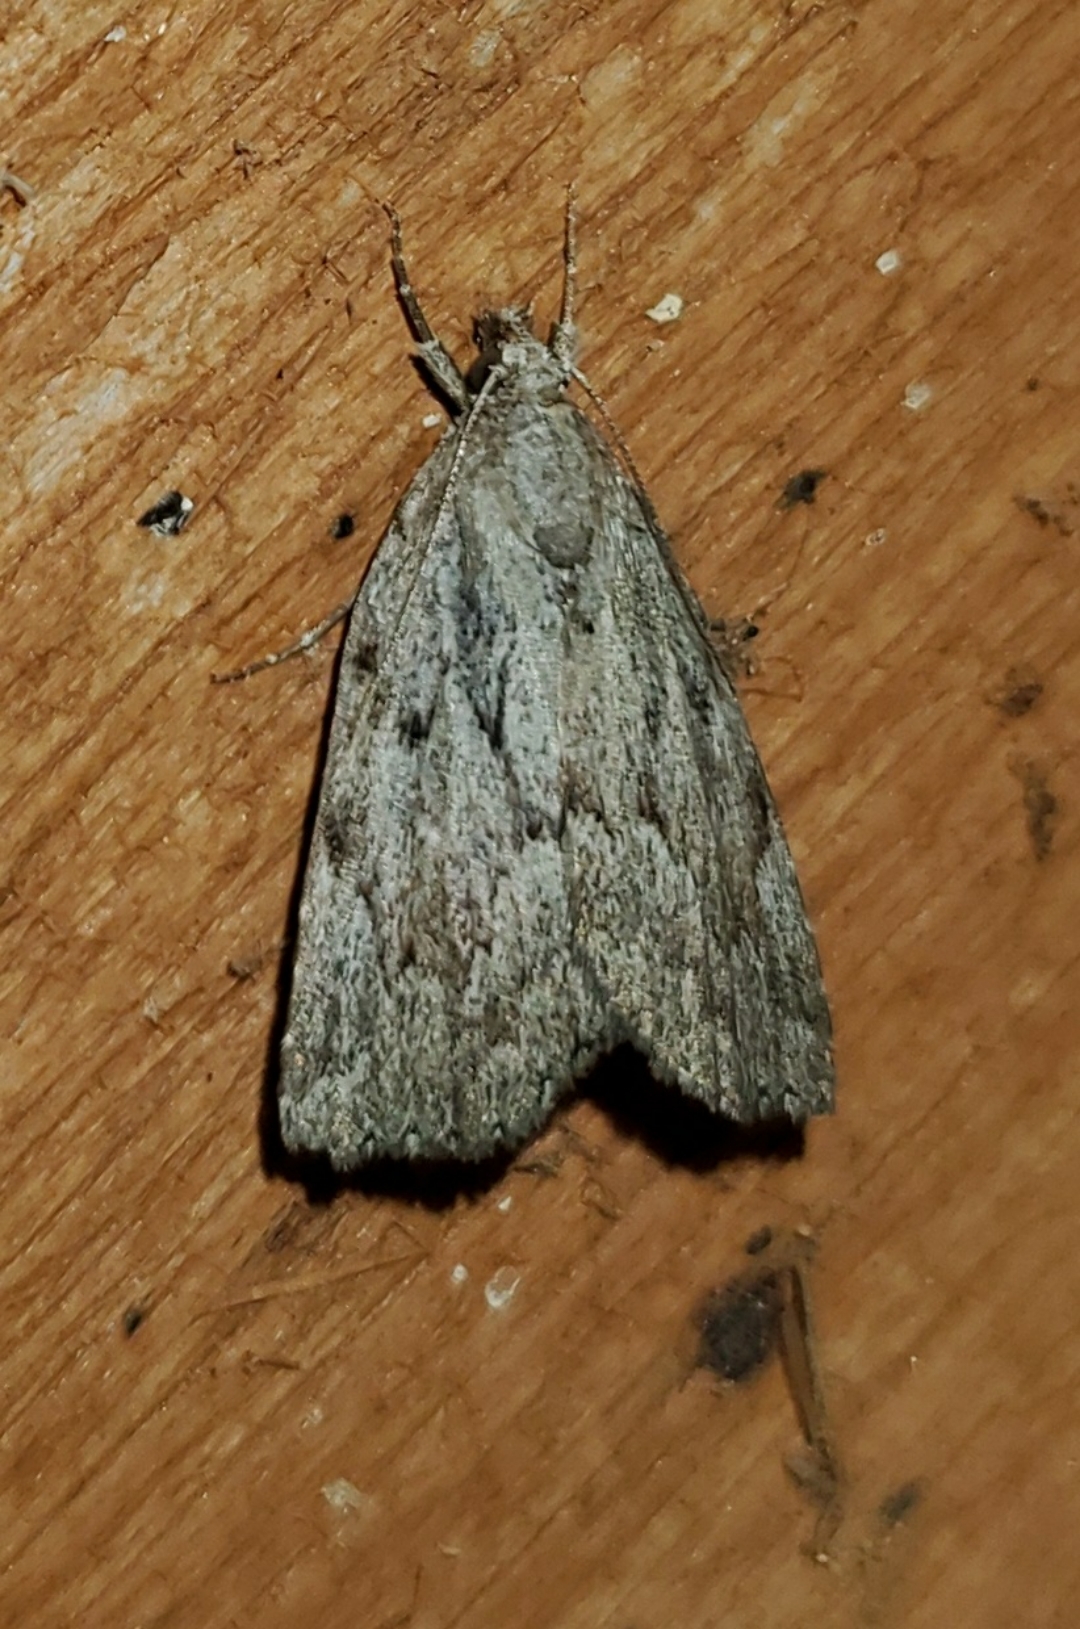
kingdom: Animalia
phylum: Arthropoda
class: Insecta
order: Lepidoptera
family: Erebidae
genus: Cutina
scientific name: Cutina albopunctella
